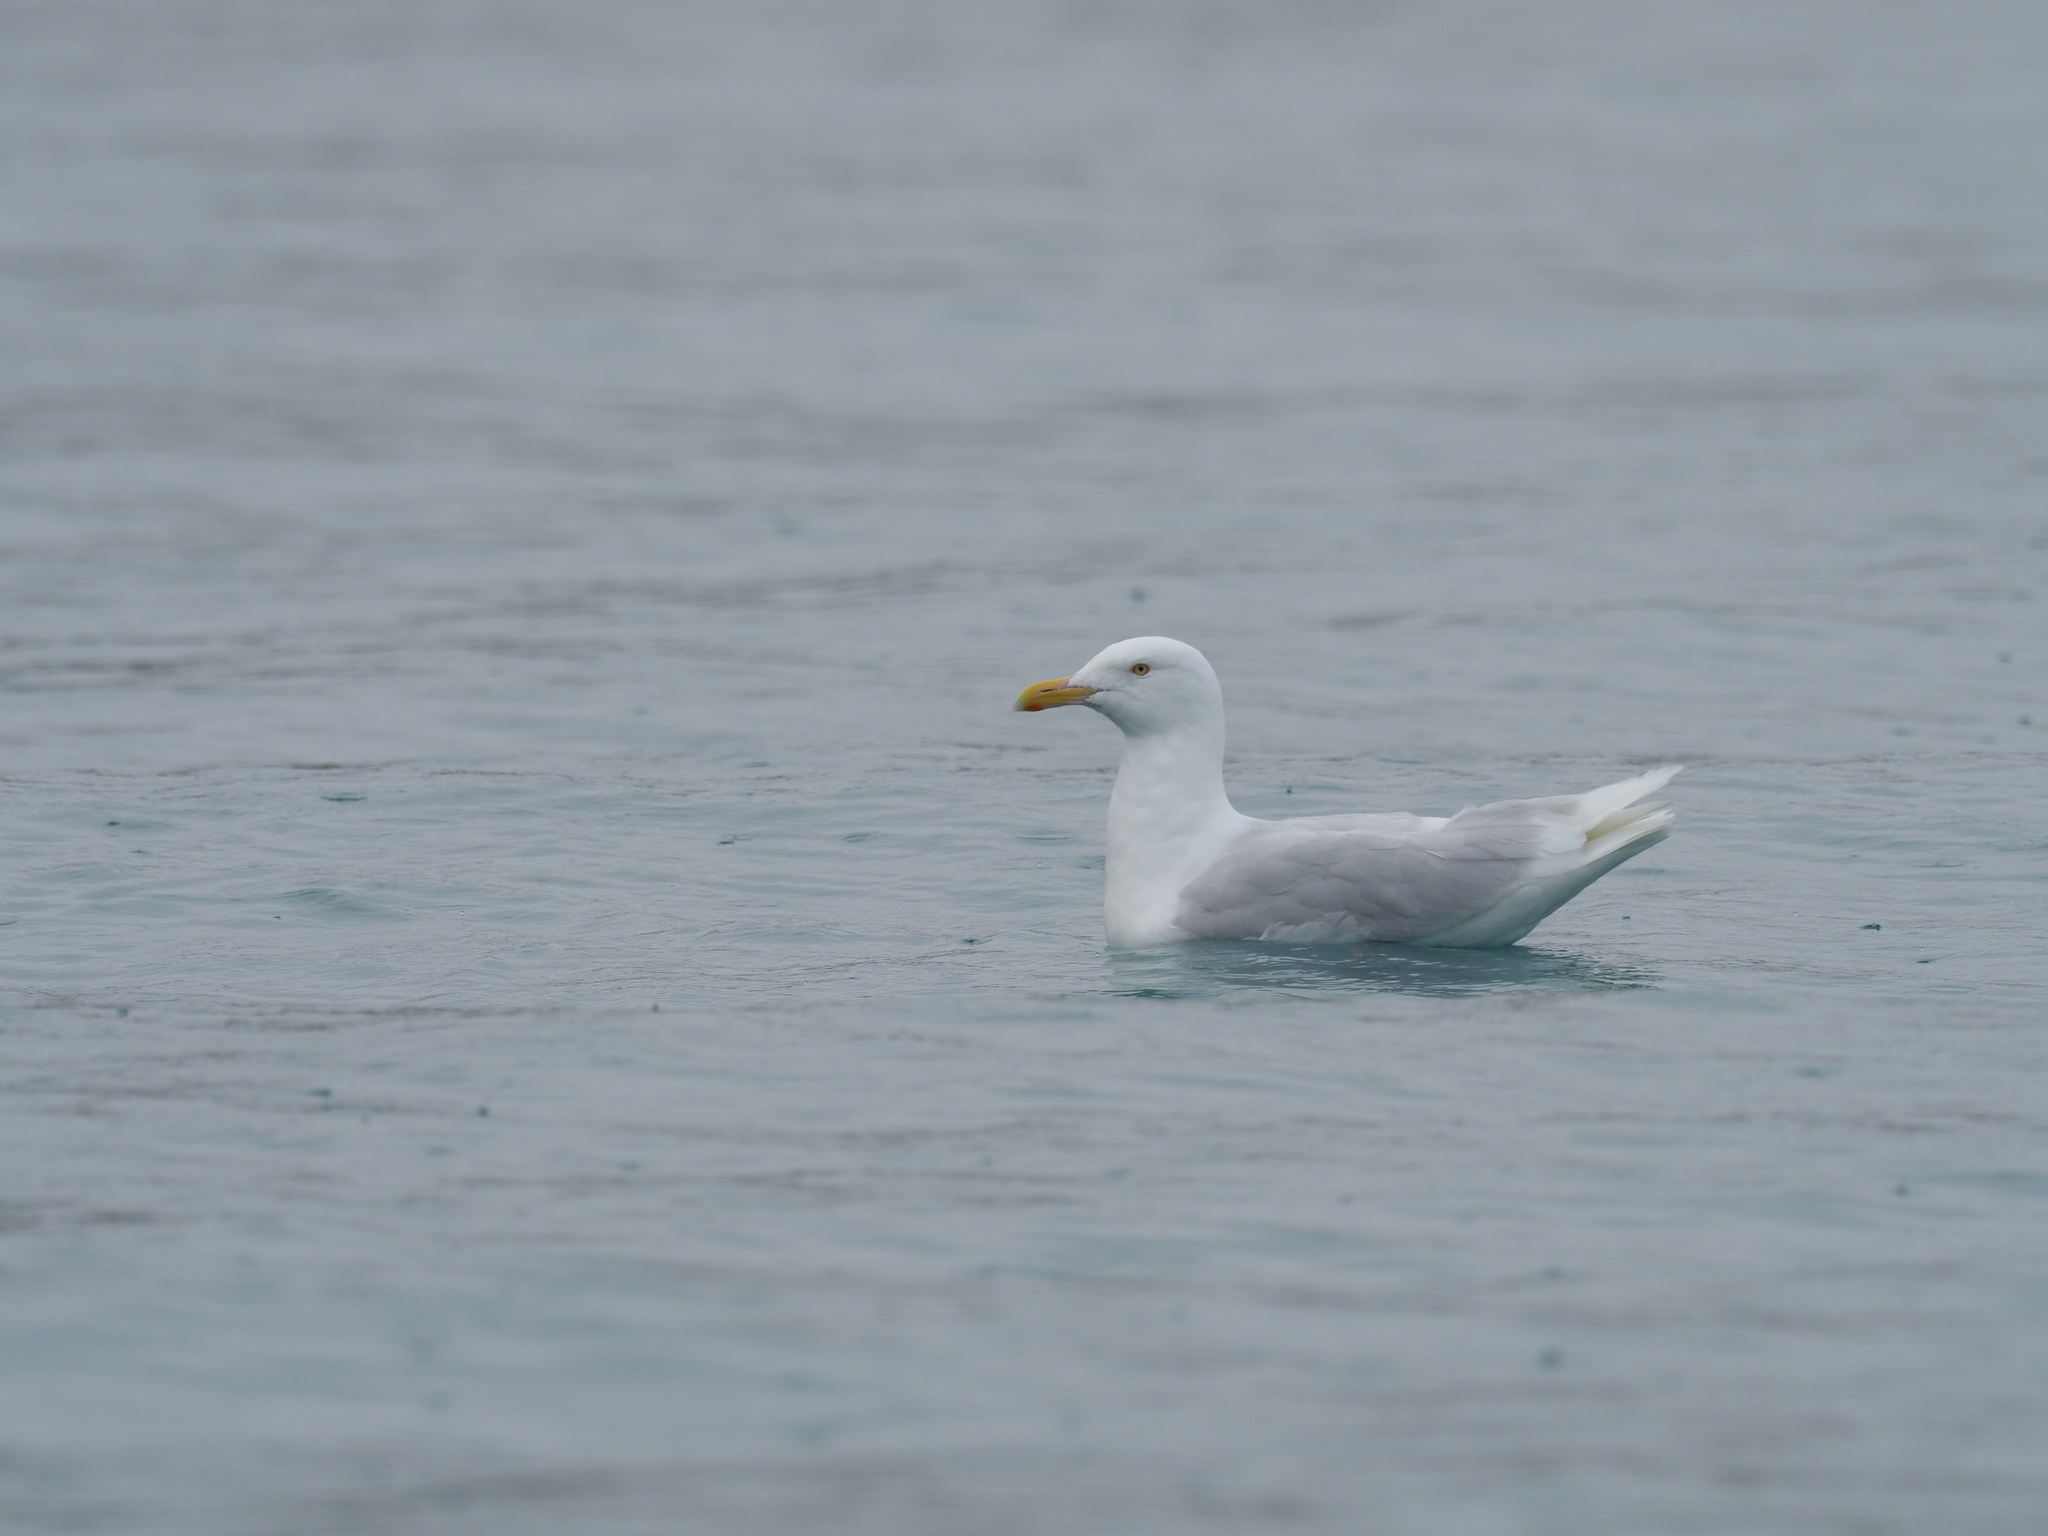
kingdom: Animalia
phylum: Chordata
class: Aves
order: Charadriiformes
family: Laridae
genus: Larus
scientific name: Larus hyperboreus
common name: Glaucous gull
